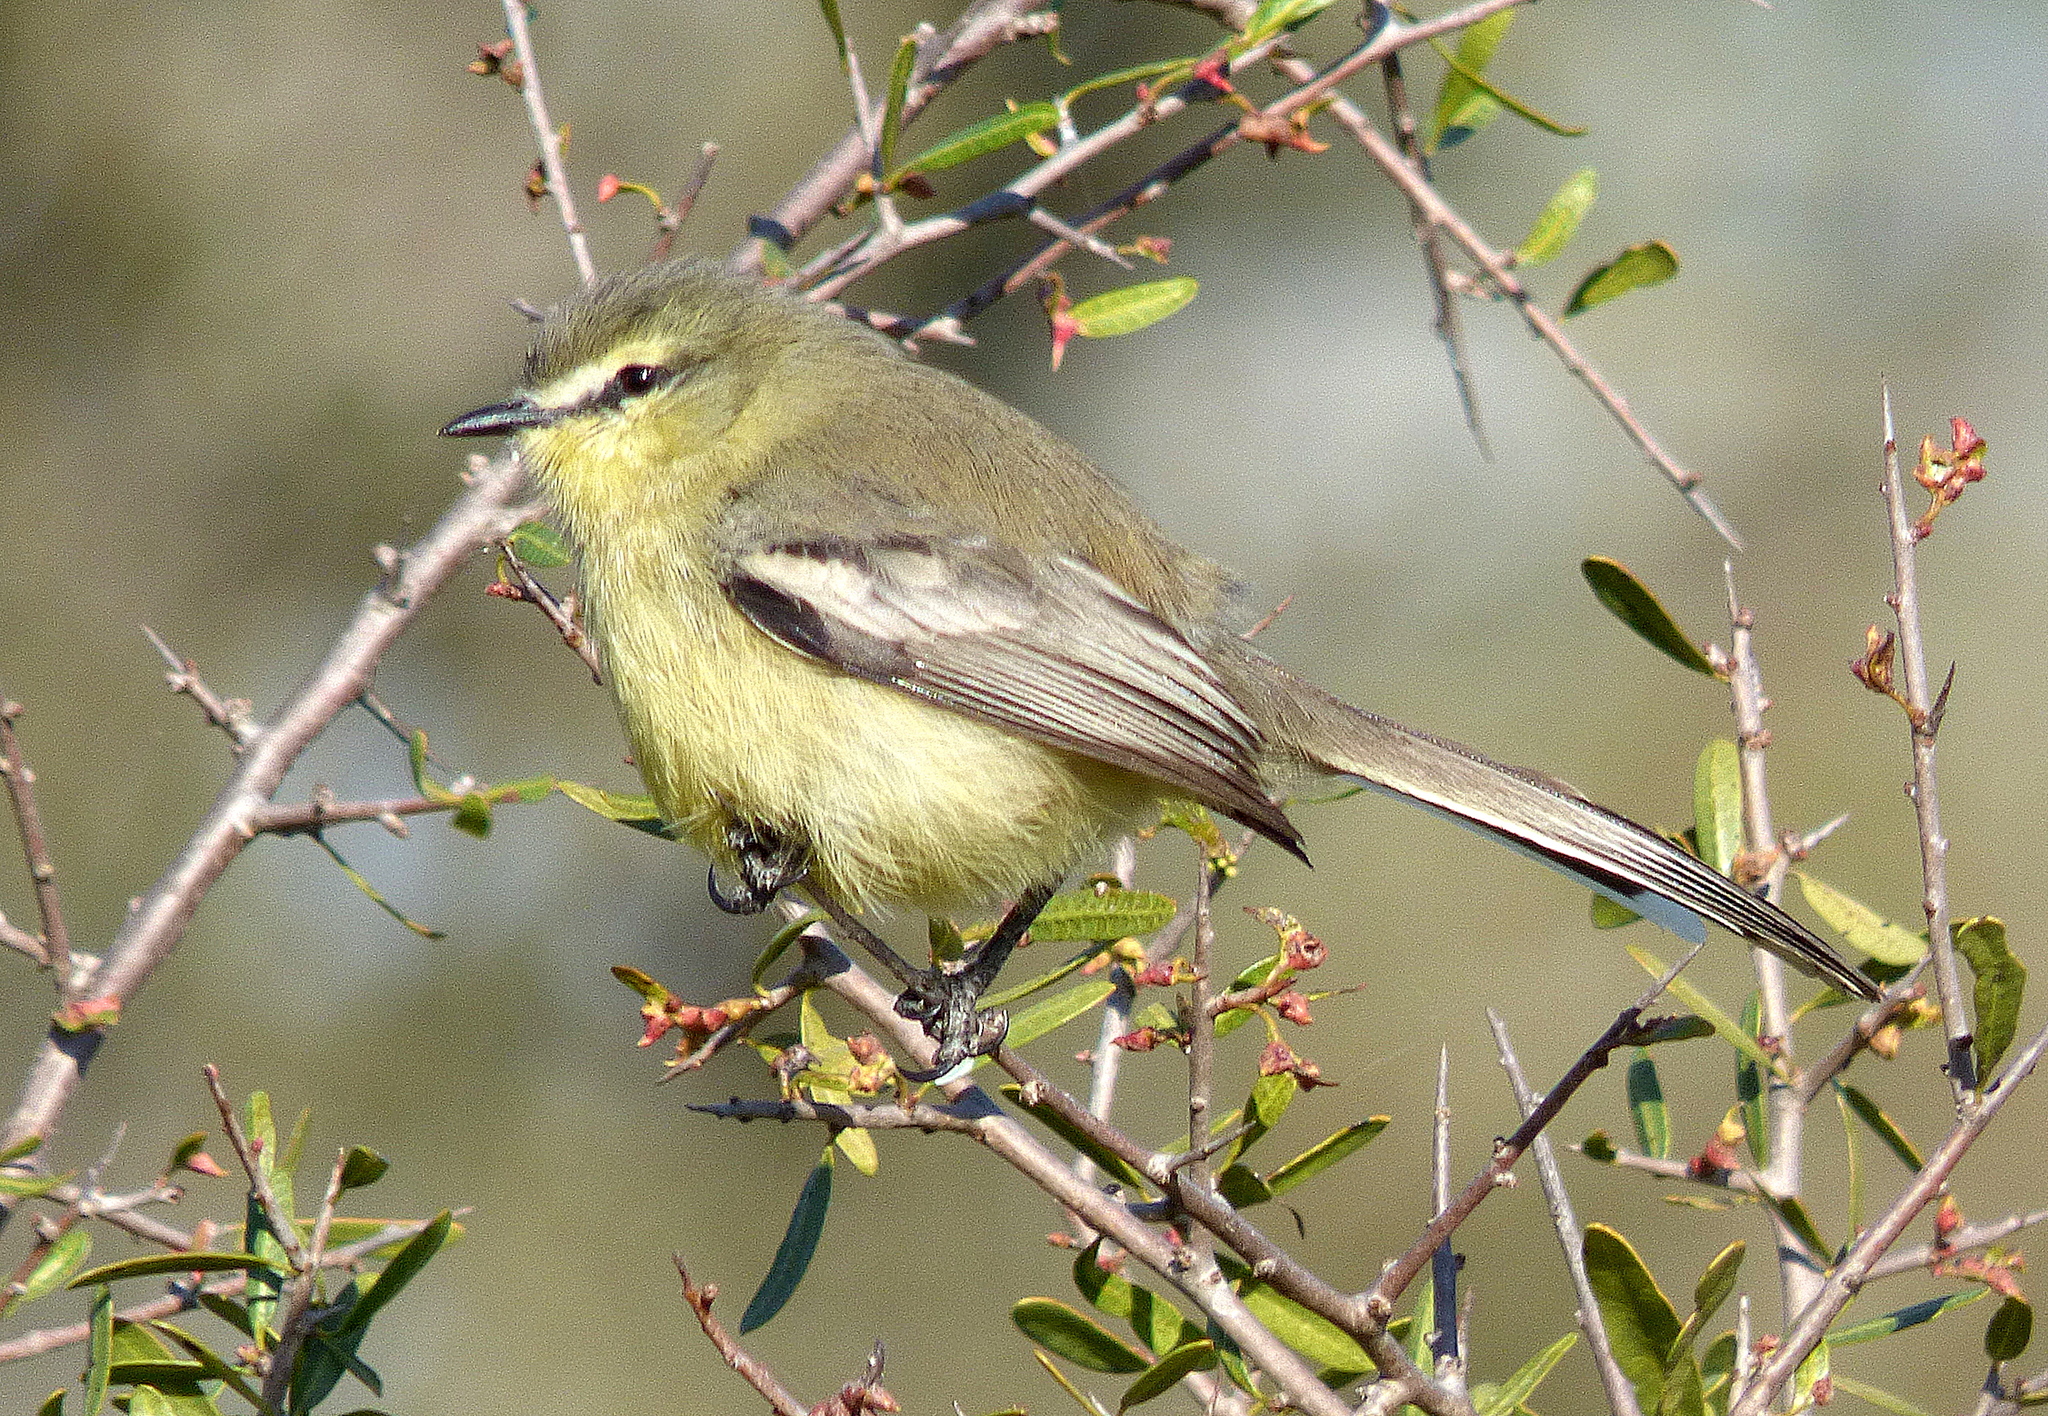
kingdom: Animalia
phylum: Chordata
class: Aves
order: Passeriformes
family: Tyrannidae
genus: Stigmatura
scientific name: Stigmatura budytoides
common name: Greater wagtail-tyrant
